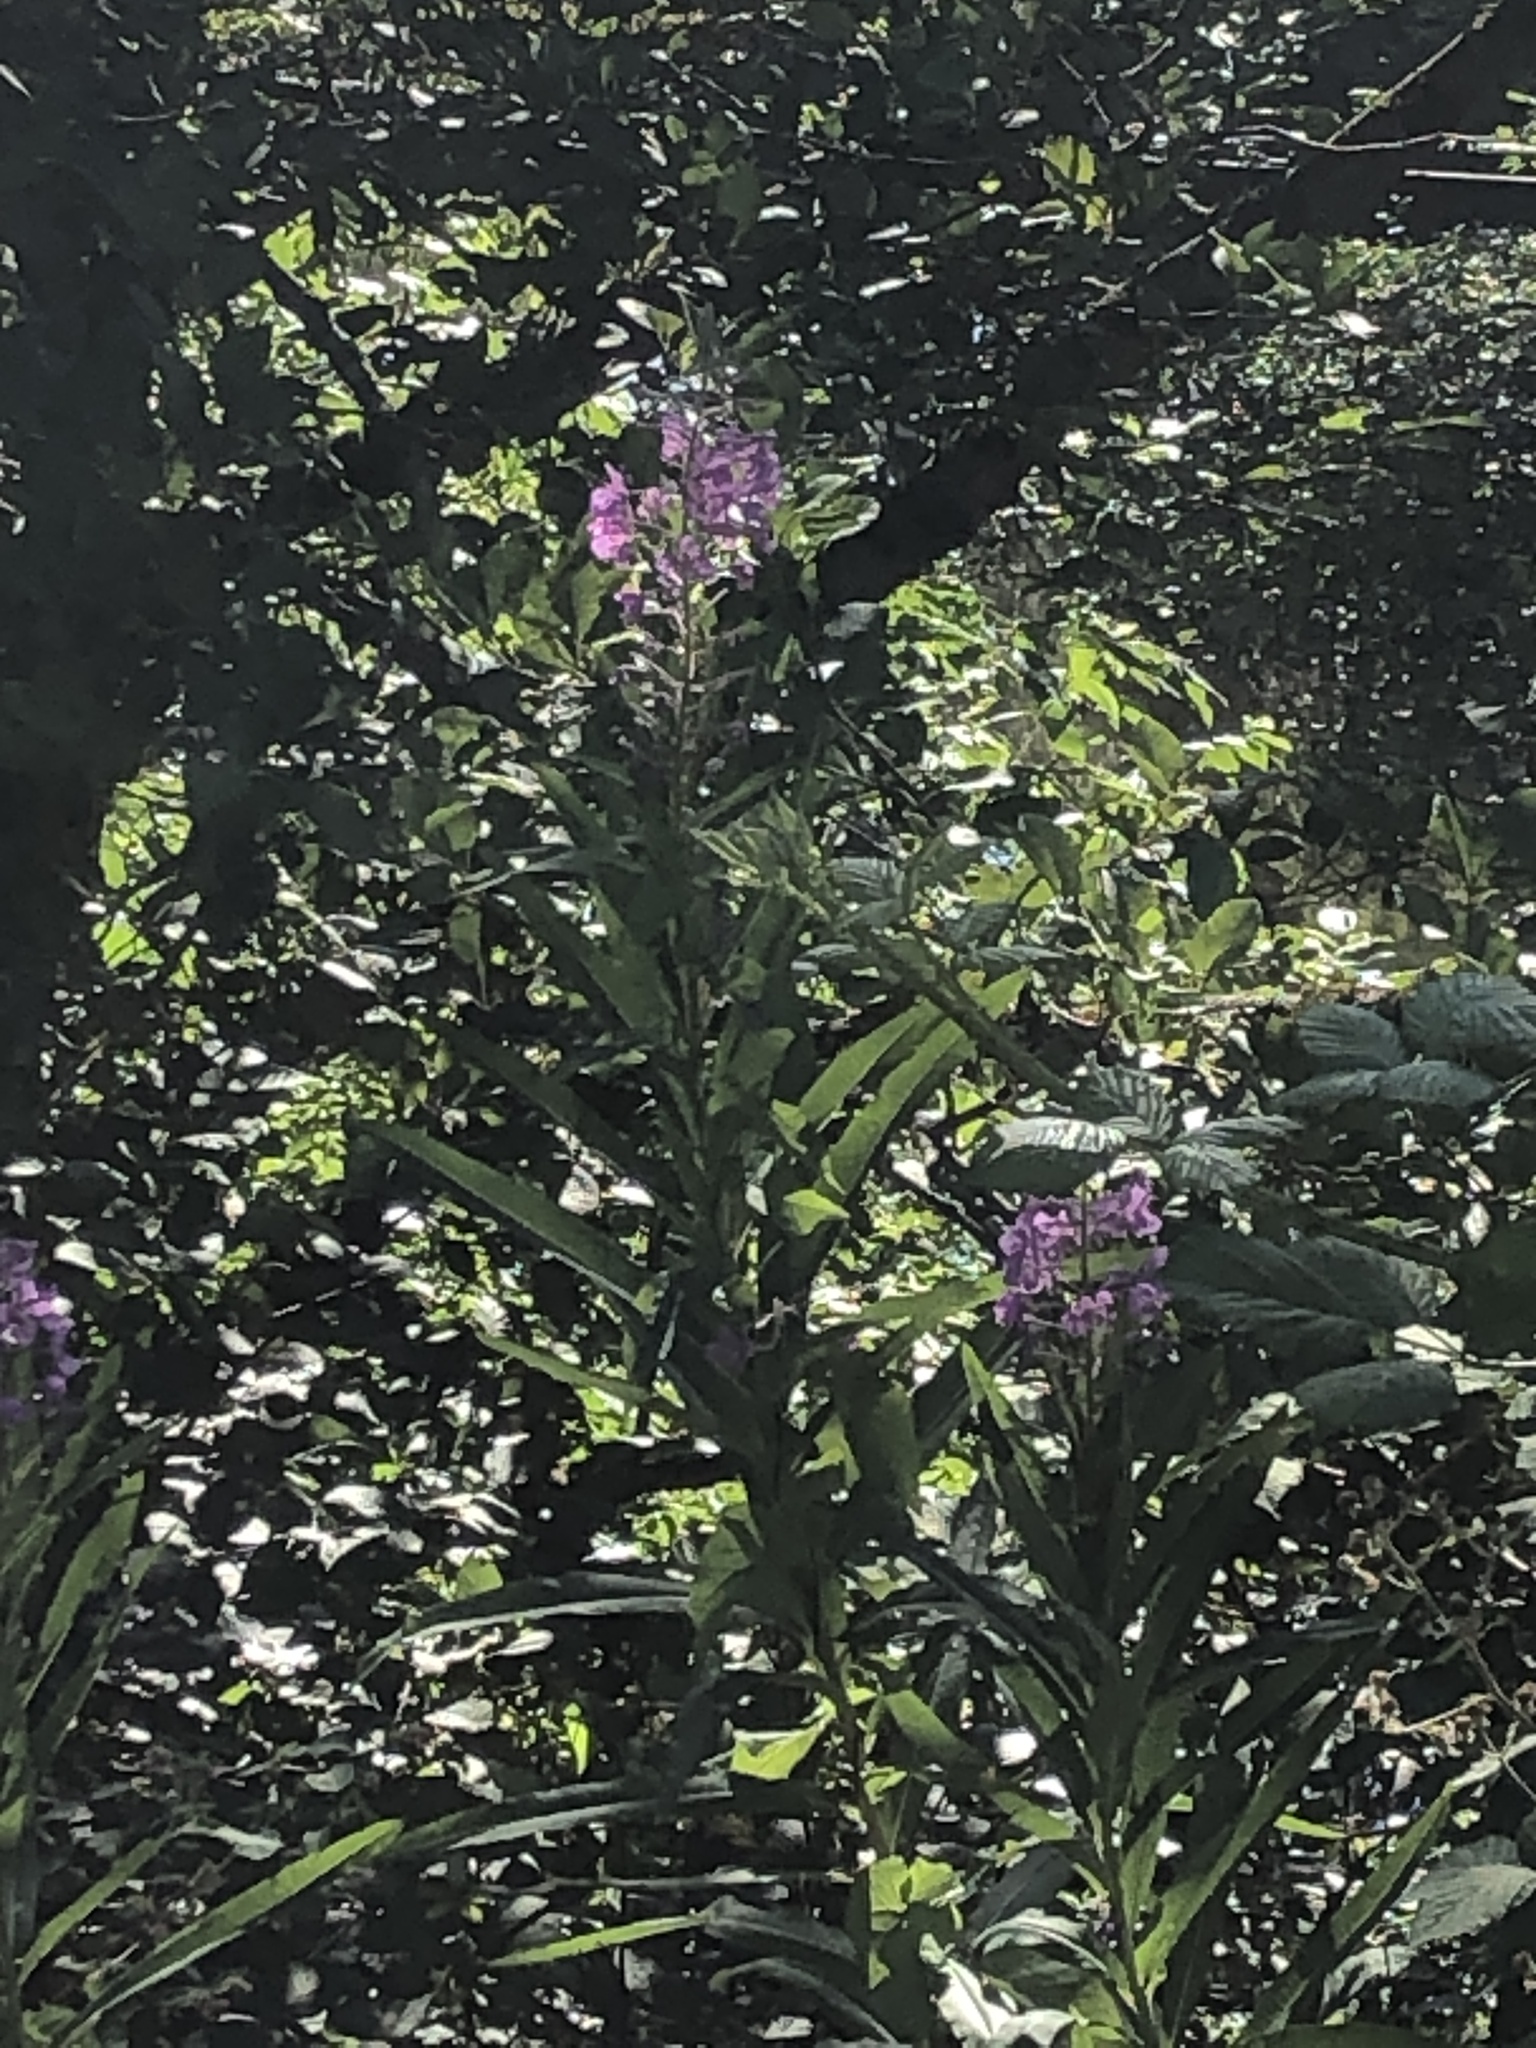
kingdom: Plantae
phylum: Tracheophyta
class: Magnoliopsida
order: Myrtales
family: Onagraceae
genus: Chamaenerion
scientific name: Chamaenerion angustifolium
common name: Fireweed
